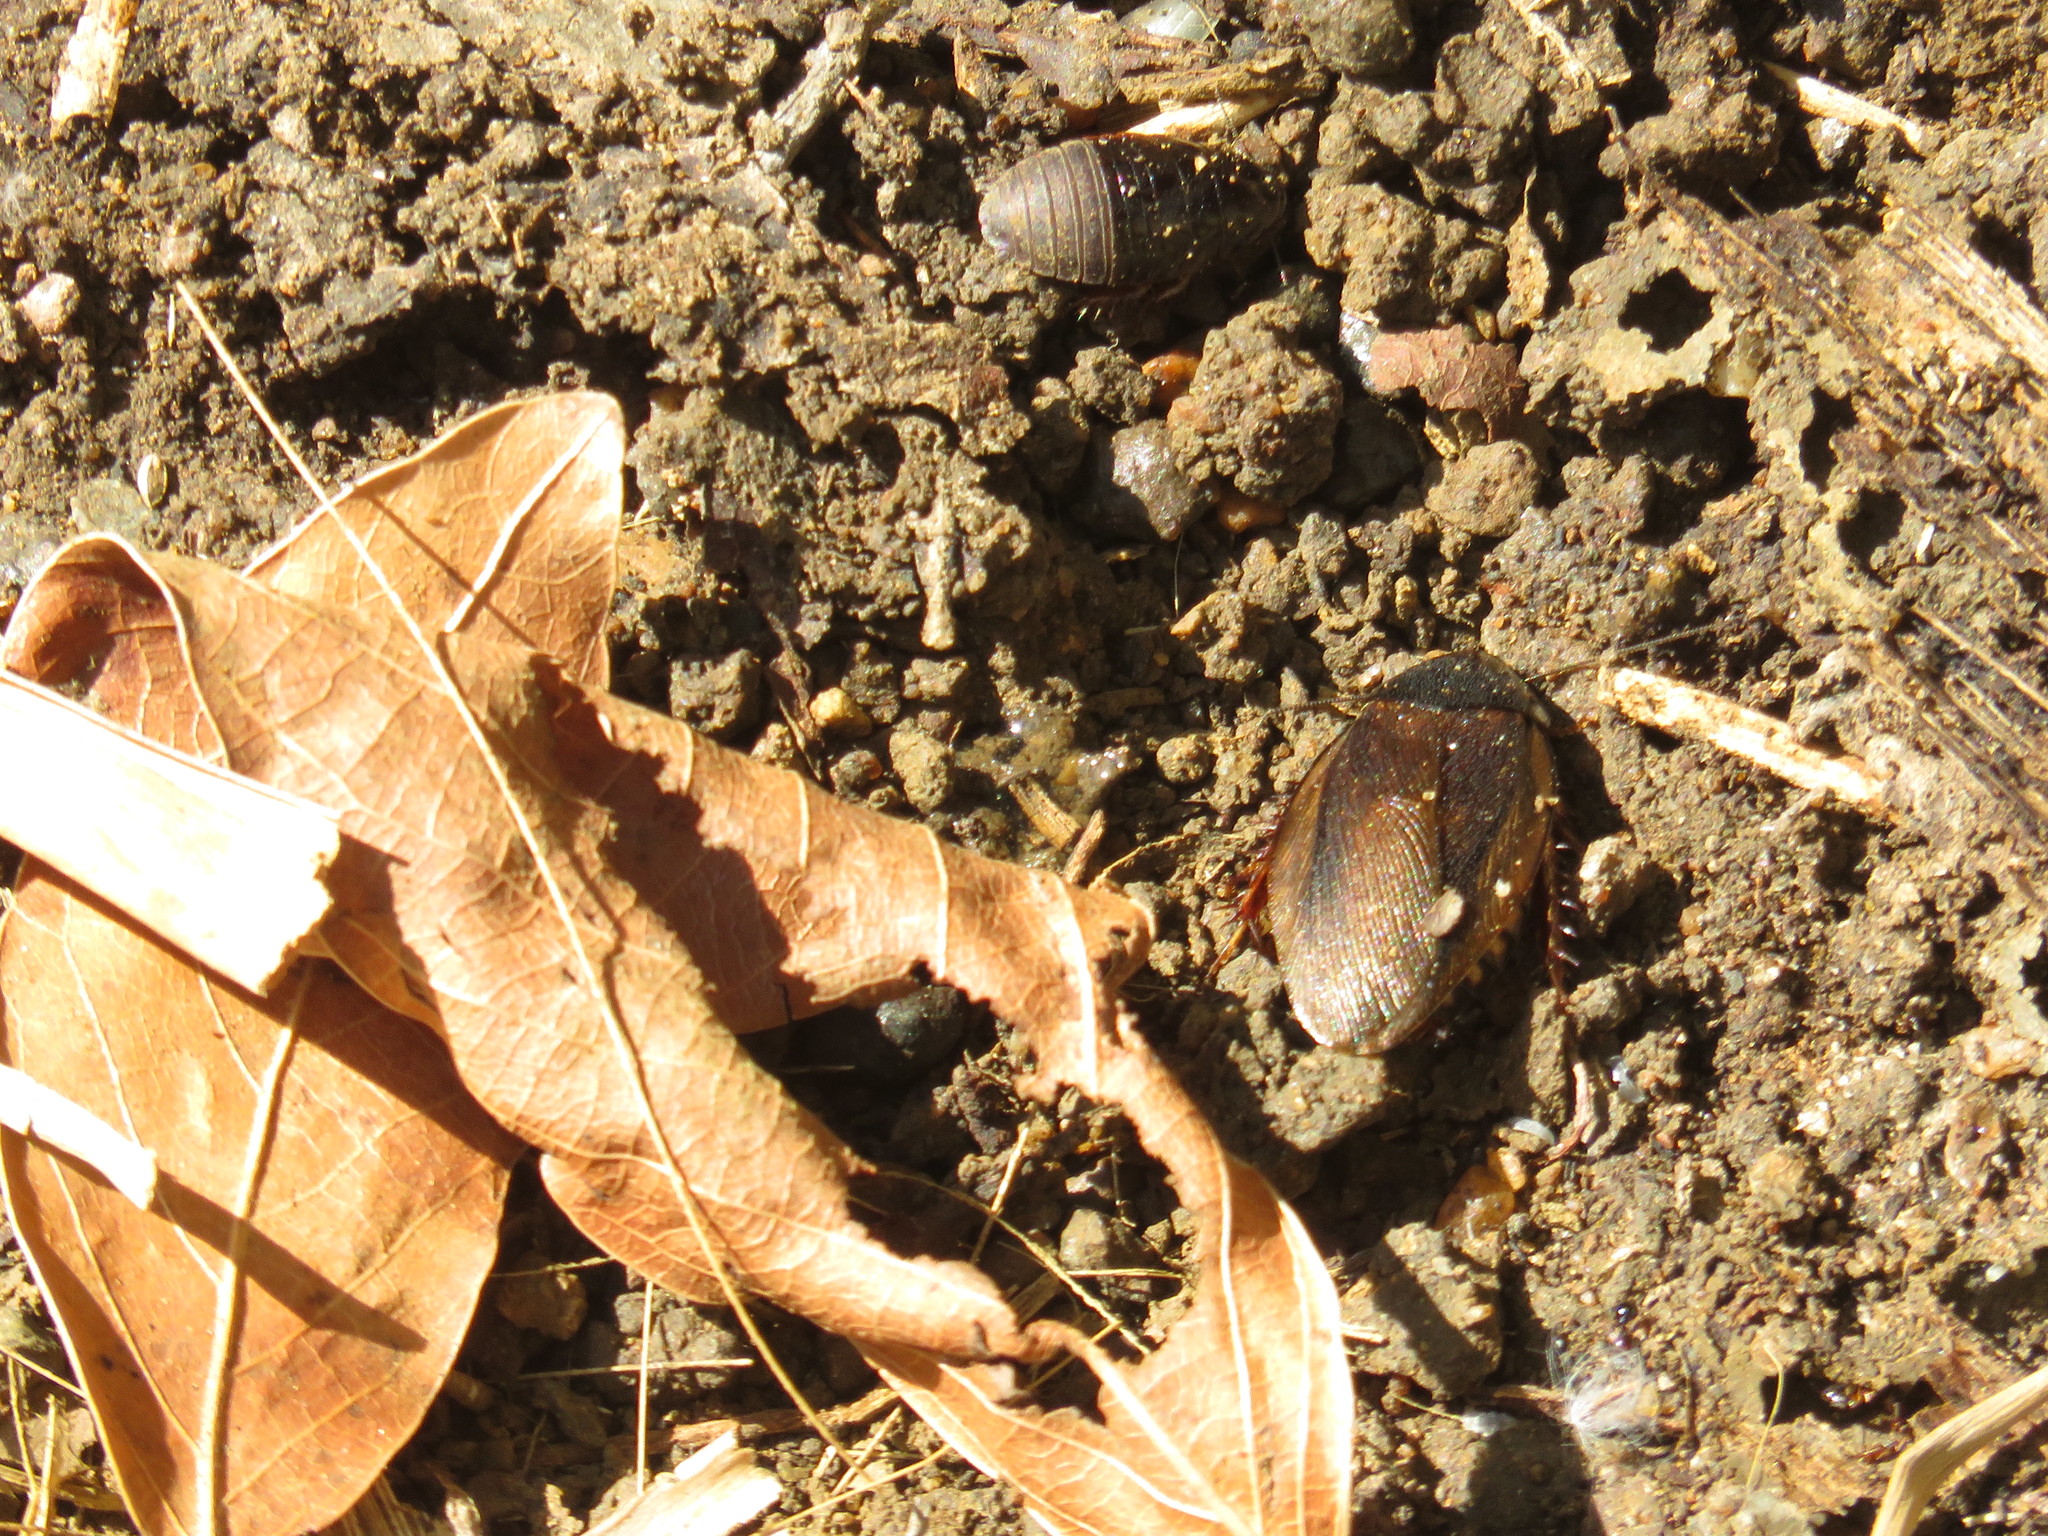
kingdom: Animalia
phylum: Arthropoda
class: Insecta
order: Blattodea
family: Blaberidae
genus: Pycnoscelus
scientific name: Pycnoscelus surinamensis
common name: Surinam cockroach
